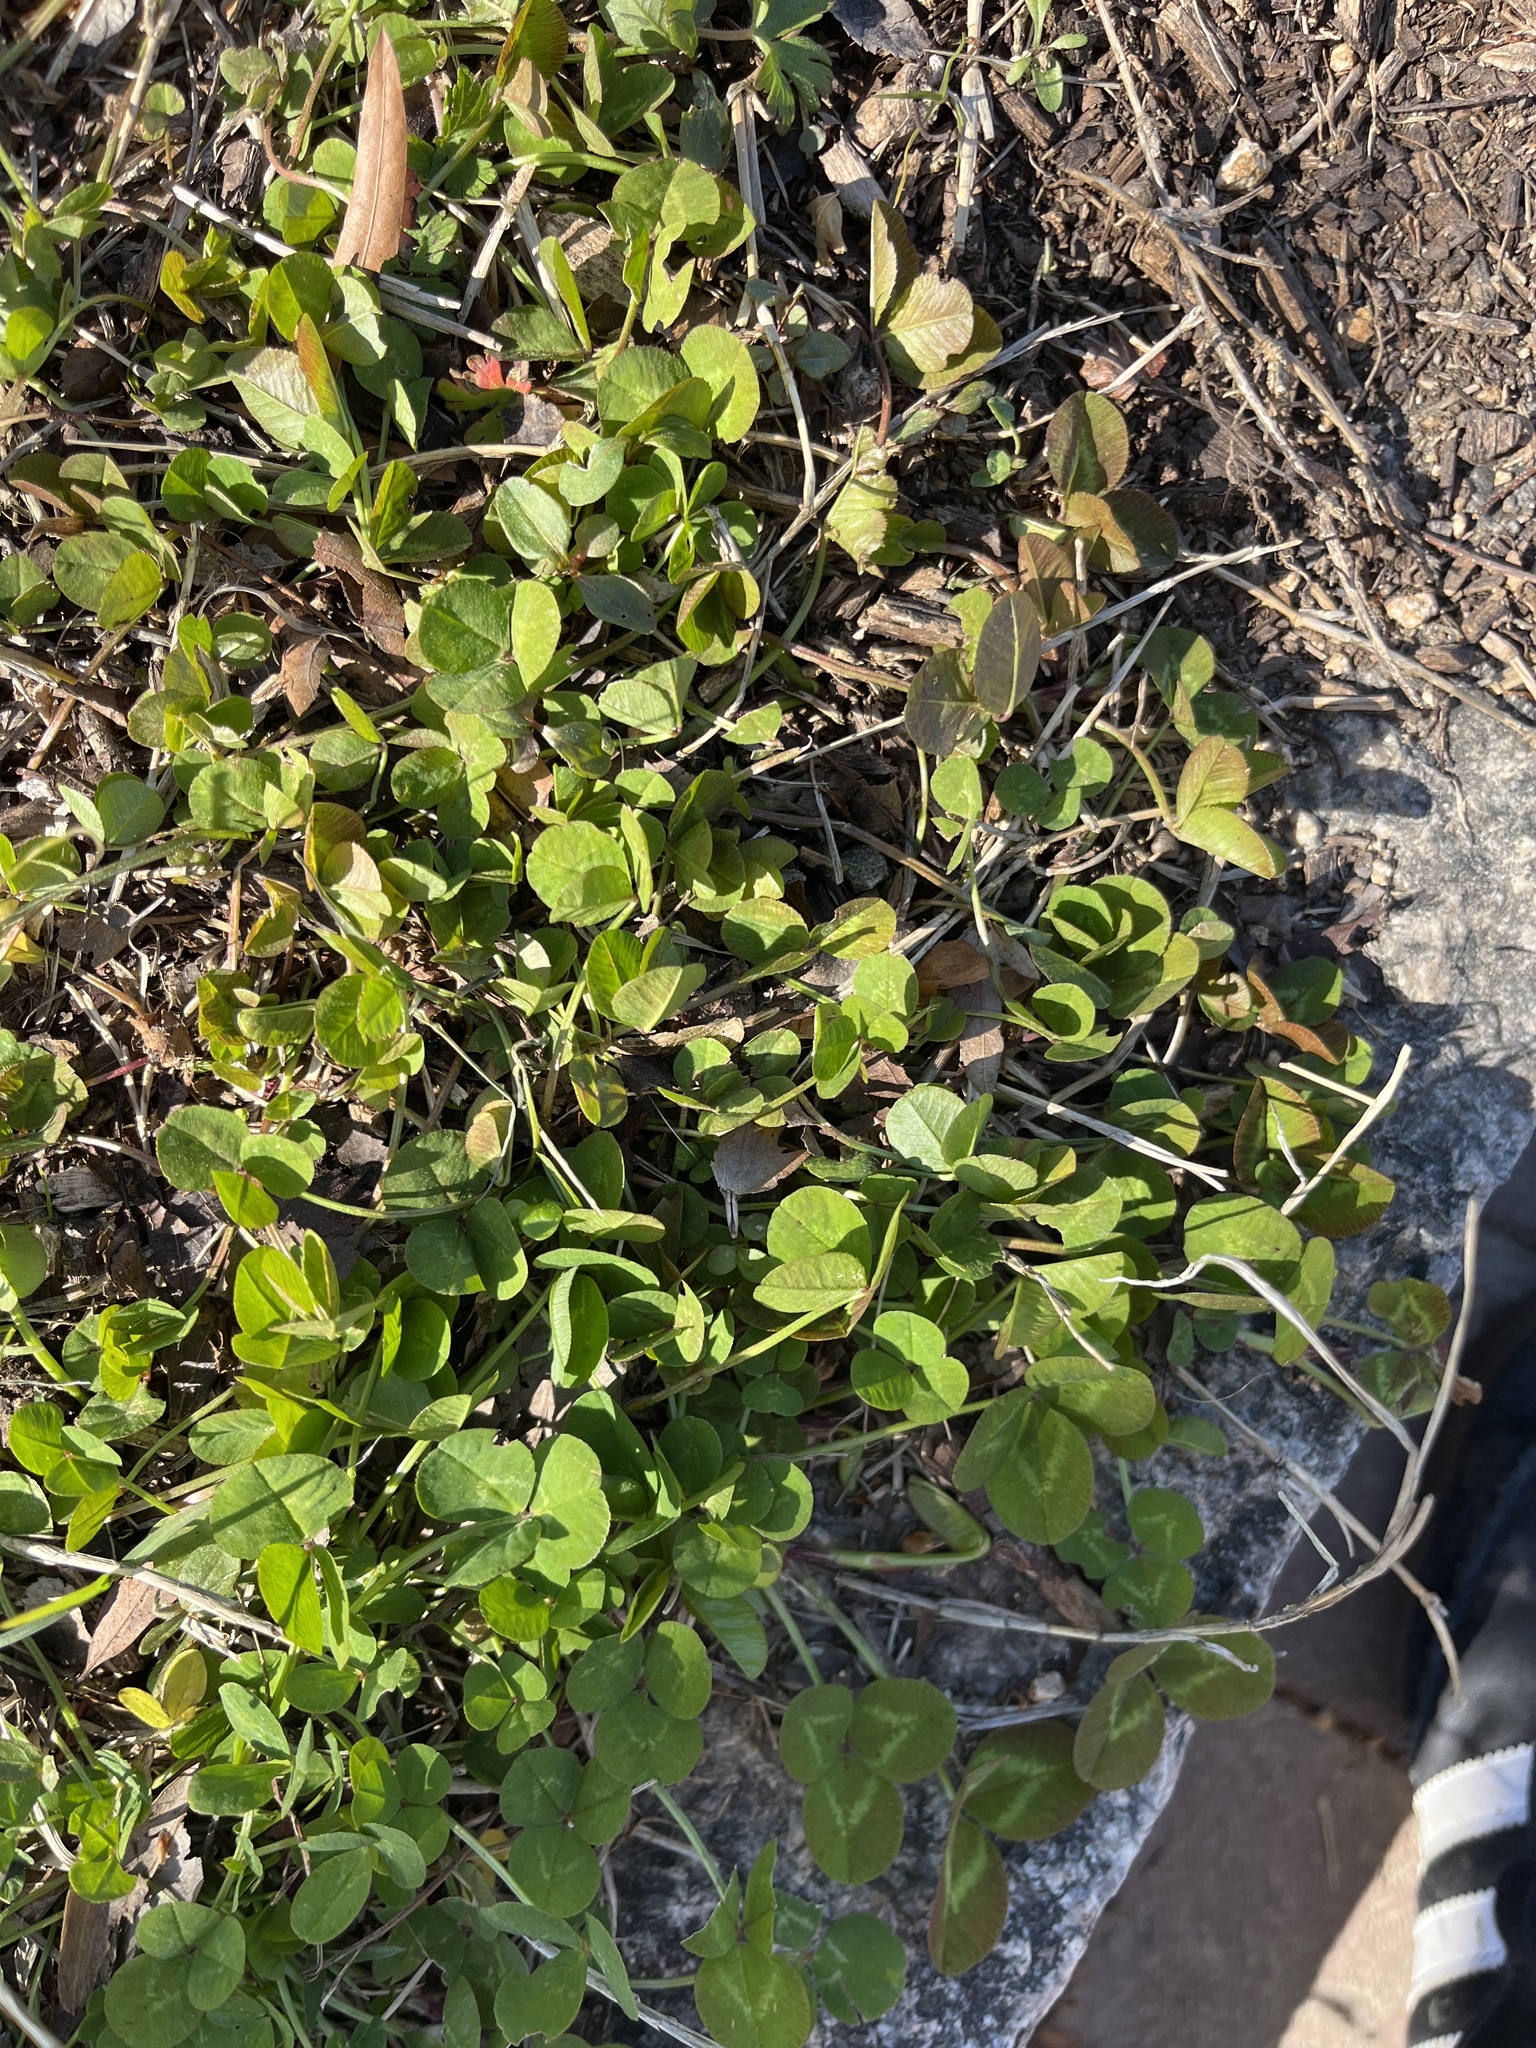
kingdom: Plantae
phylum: Tracheophyta
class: Magnoliopsida
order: Fabales
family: Fabaceae
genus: Trifolium
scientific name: Trifolium repens
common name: White clover
